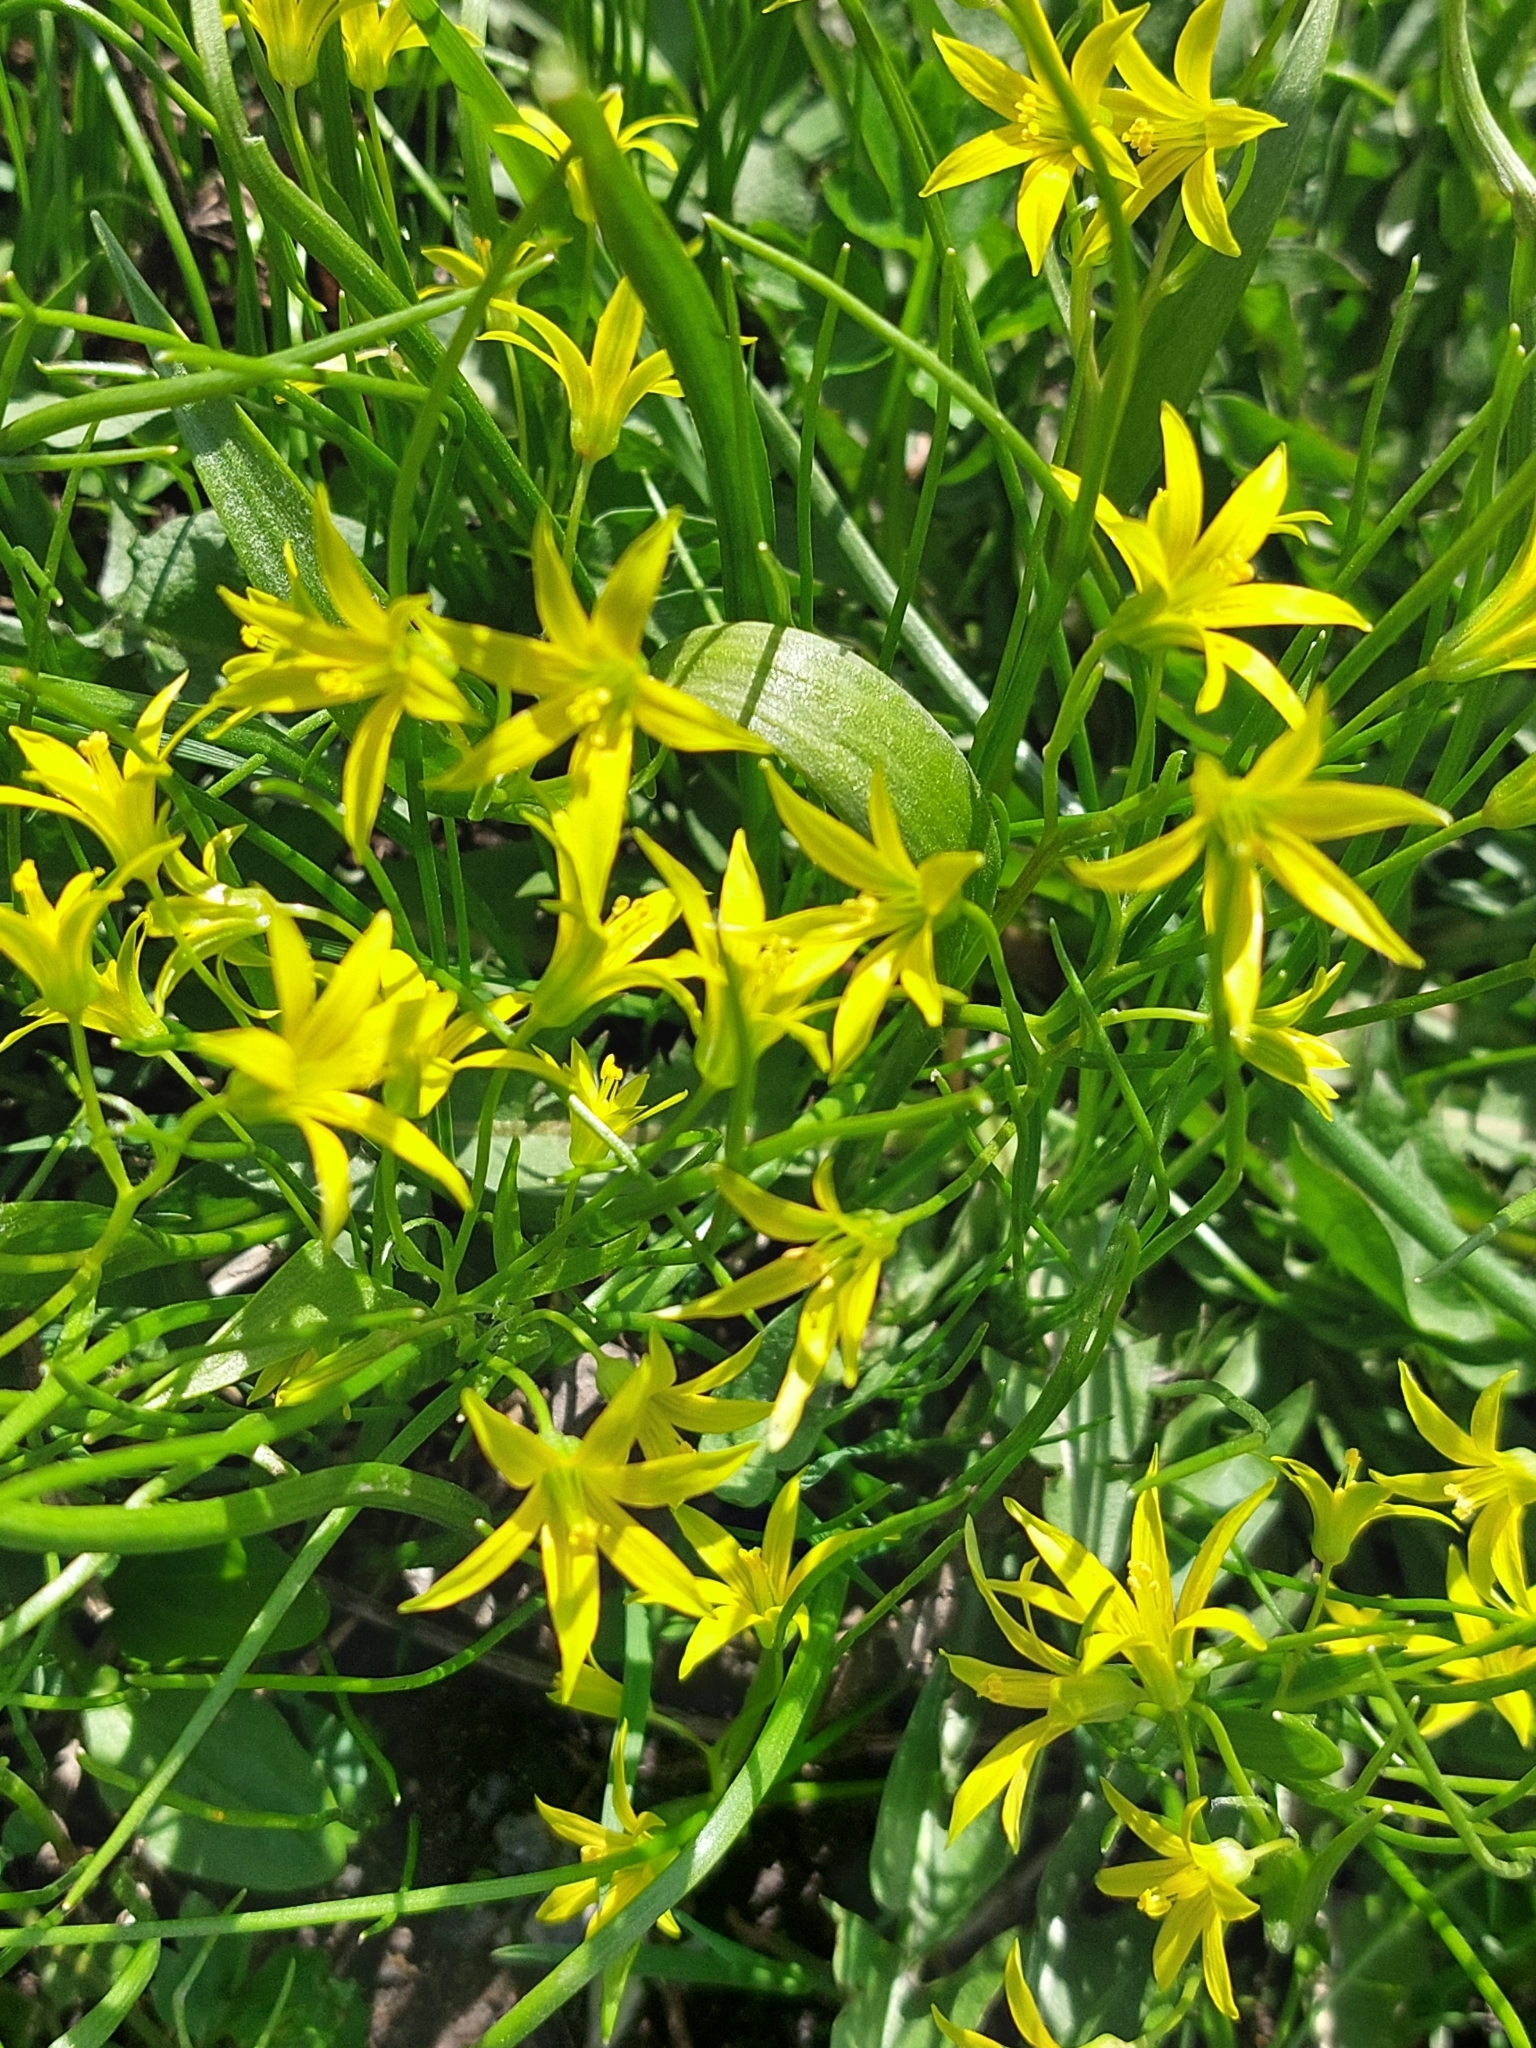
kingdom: Plantae
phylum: Tracheophyta
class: Liliopsida
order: Liliales
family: Liliaceae
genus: Gagea
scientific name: Gagea minima
